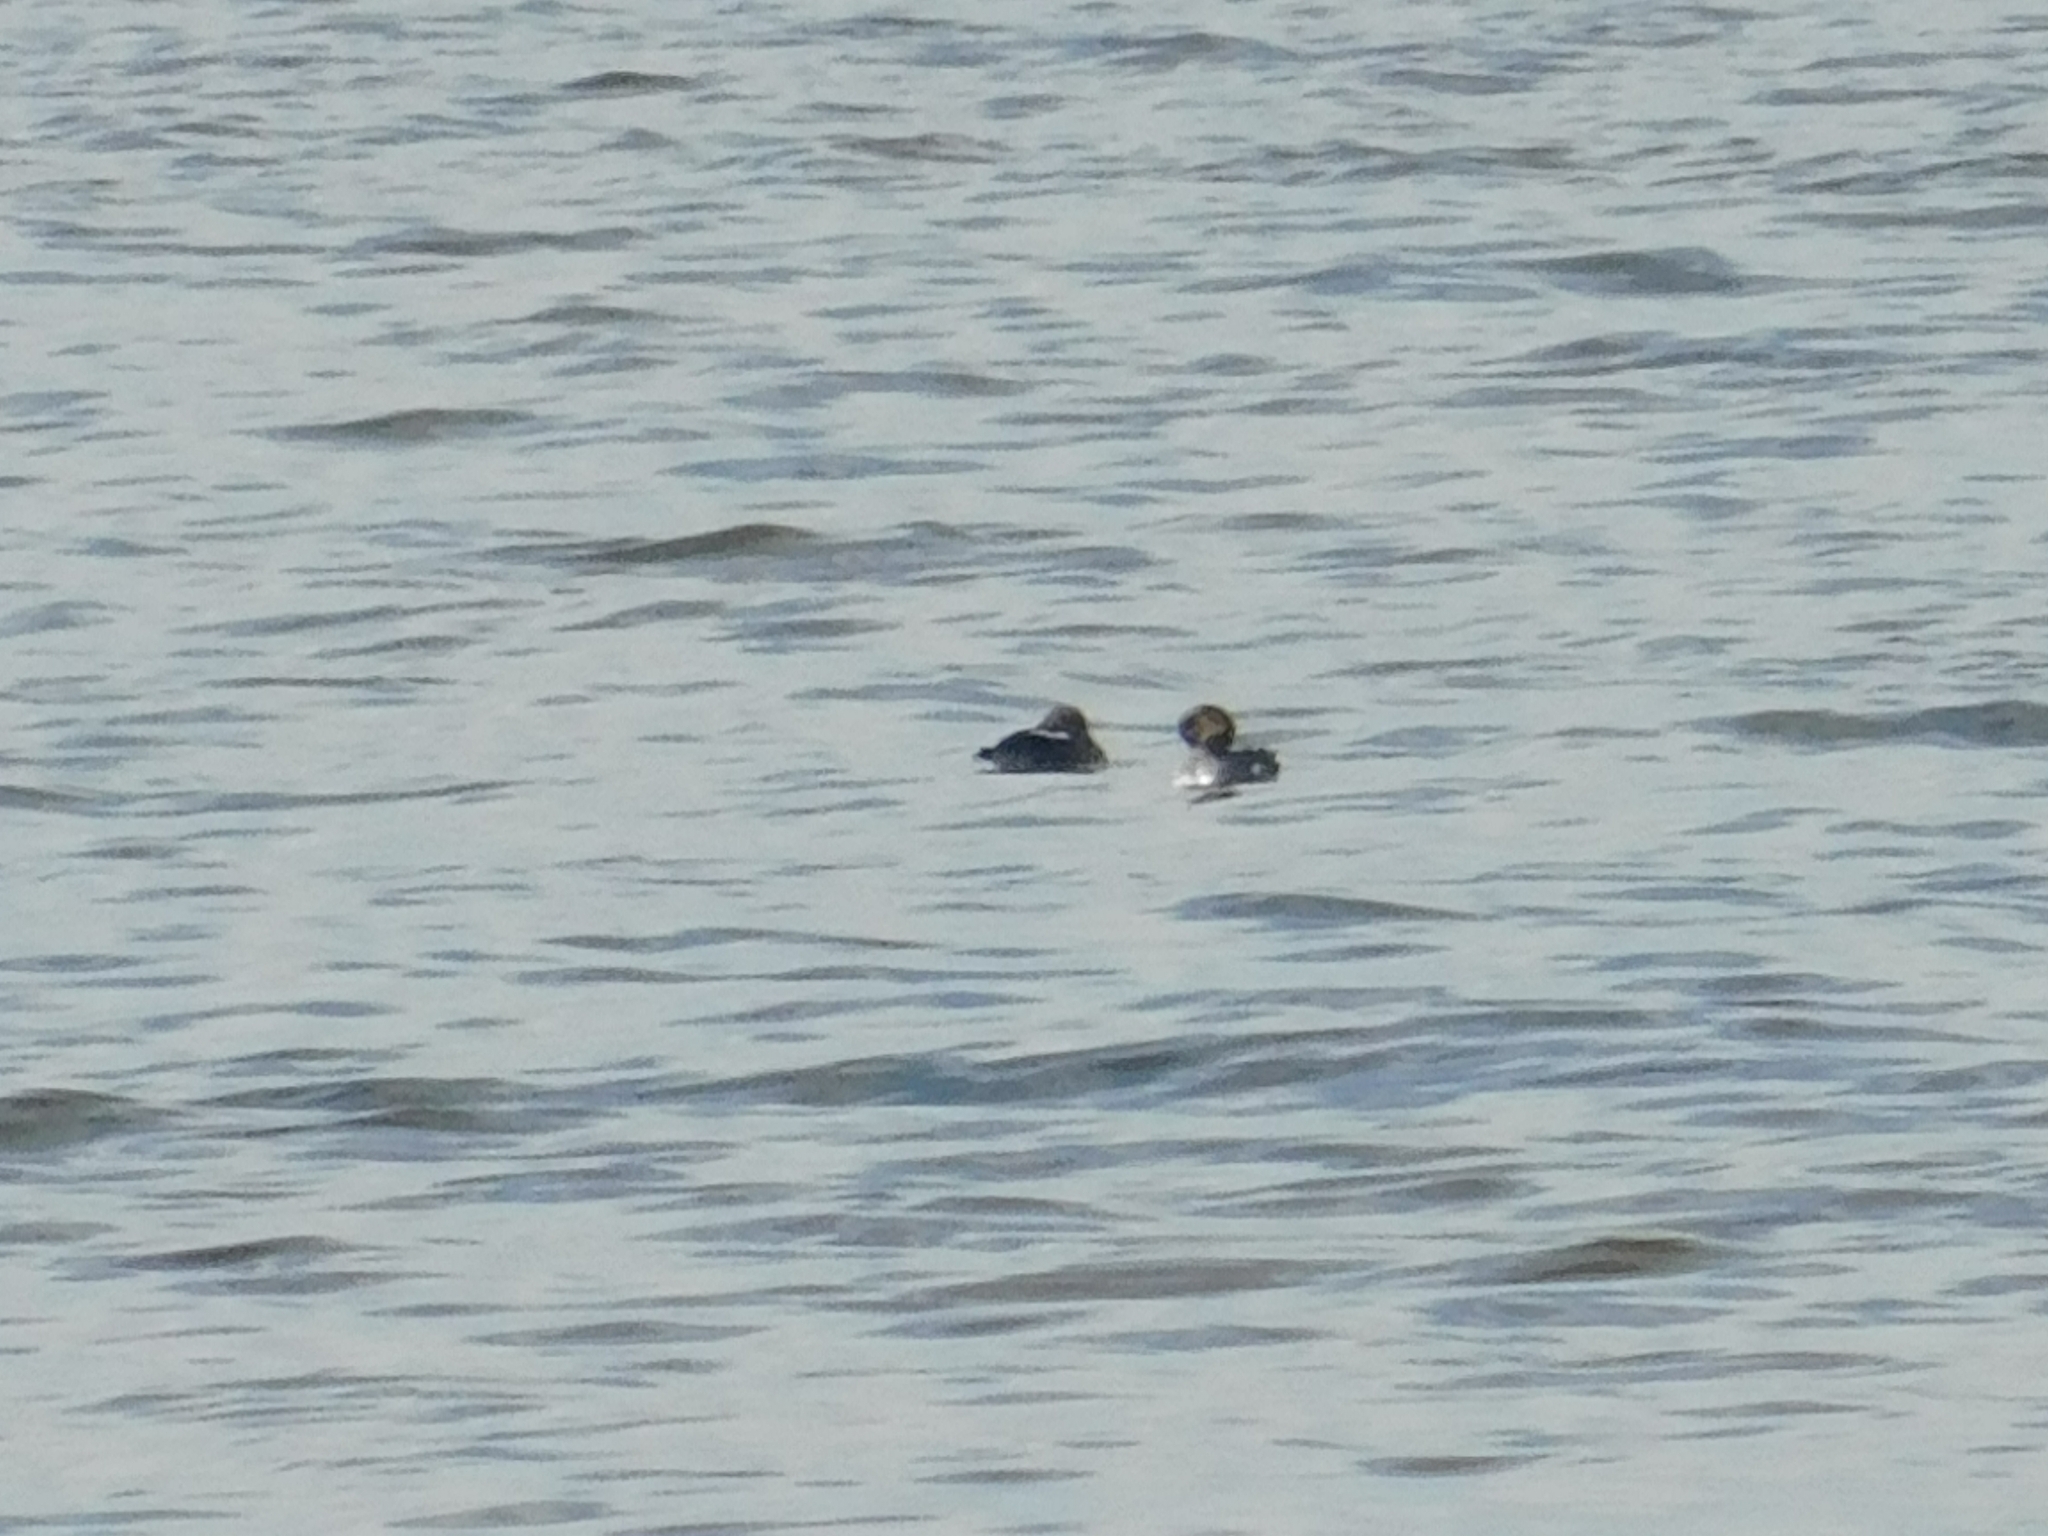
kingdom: Animalia
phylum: Chordata
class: Aves
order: Anseriformes
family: Anatidae
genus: Bucephala
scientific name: Bucephala clangula
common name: Common goldeneye
